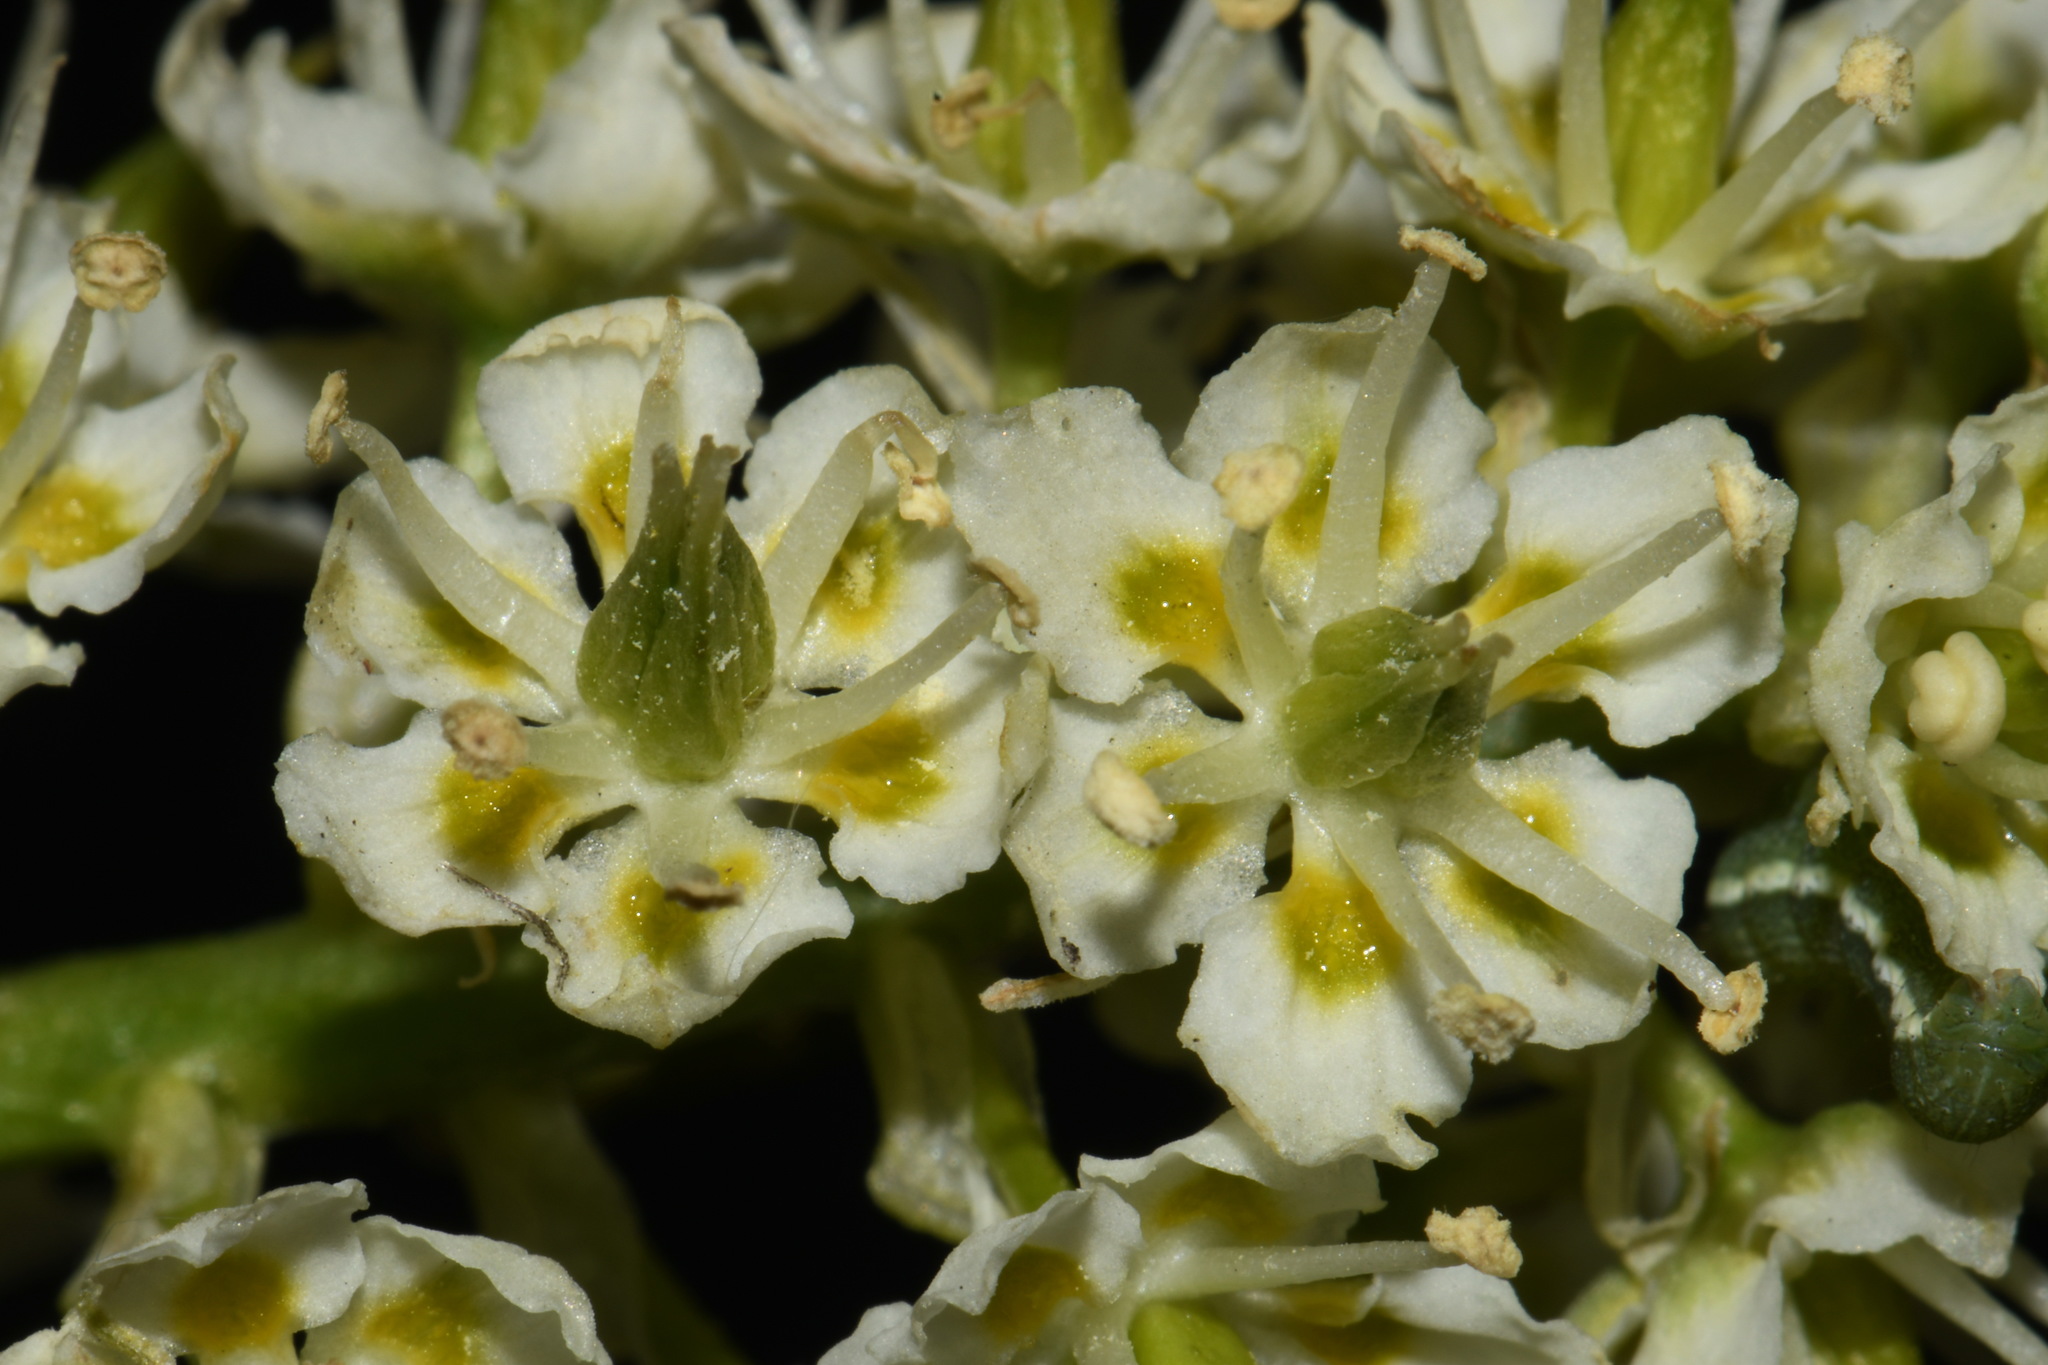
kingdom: Plantae
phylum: Tracheophyta
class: Liliopsida
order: Liliales
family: Melanthiaceae
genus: Toxicoscordion
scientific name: Toxicoscordion venenosum
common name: Meadow death camas
